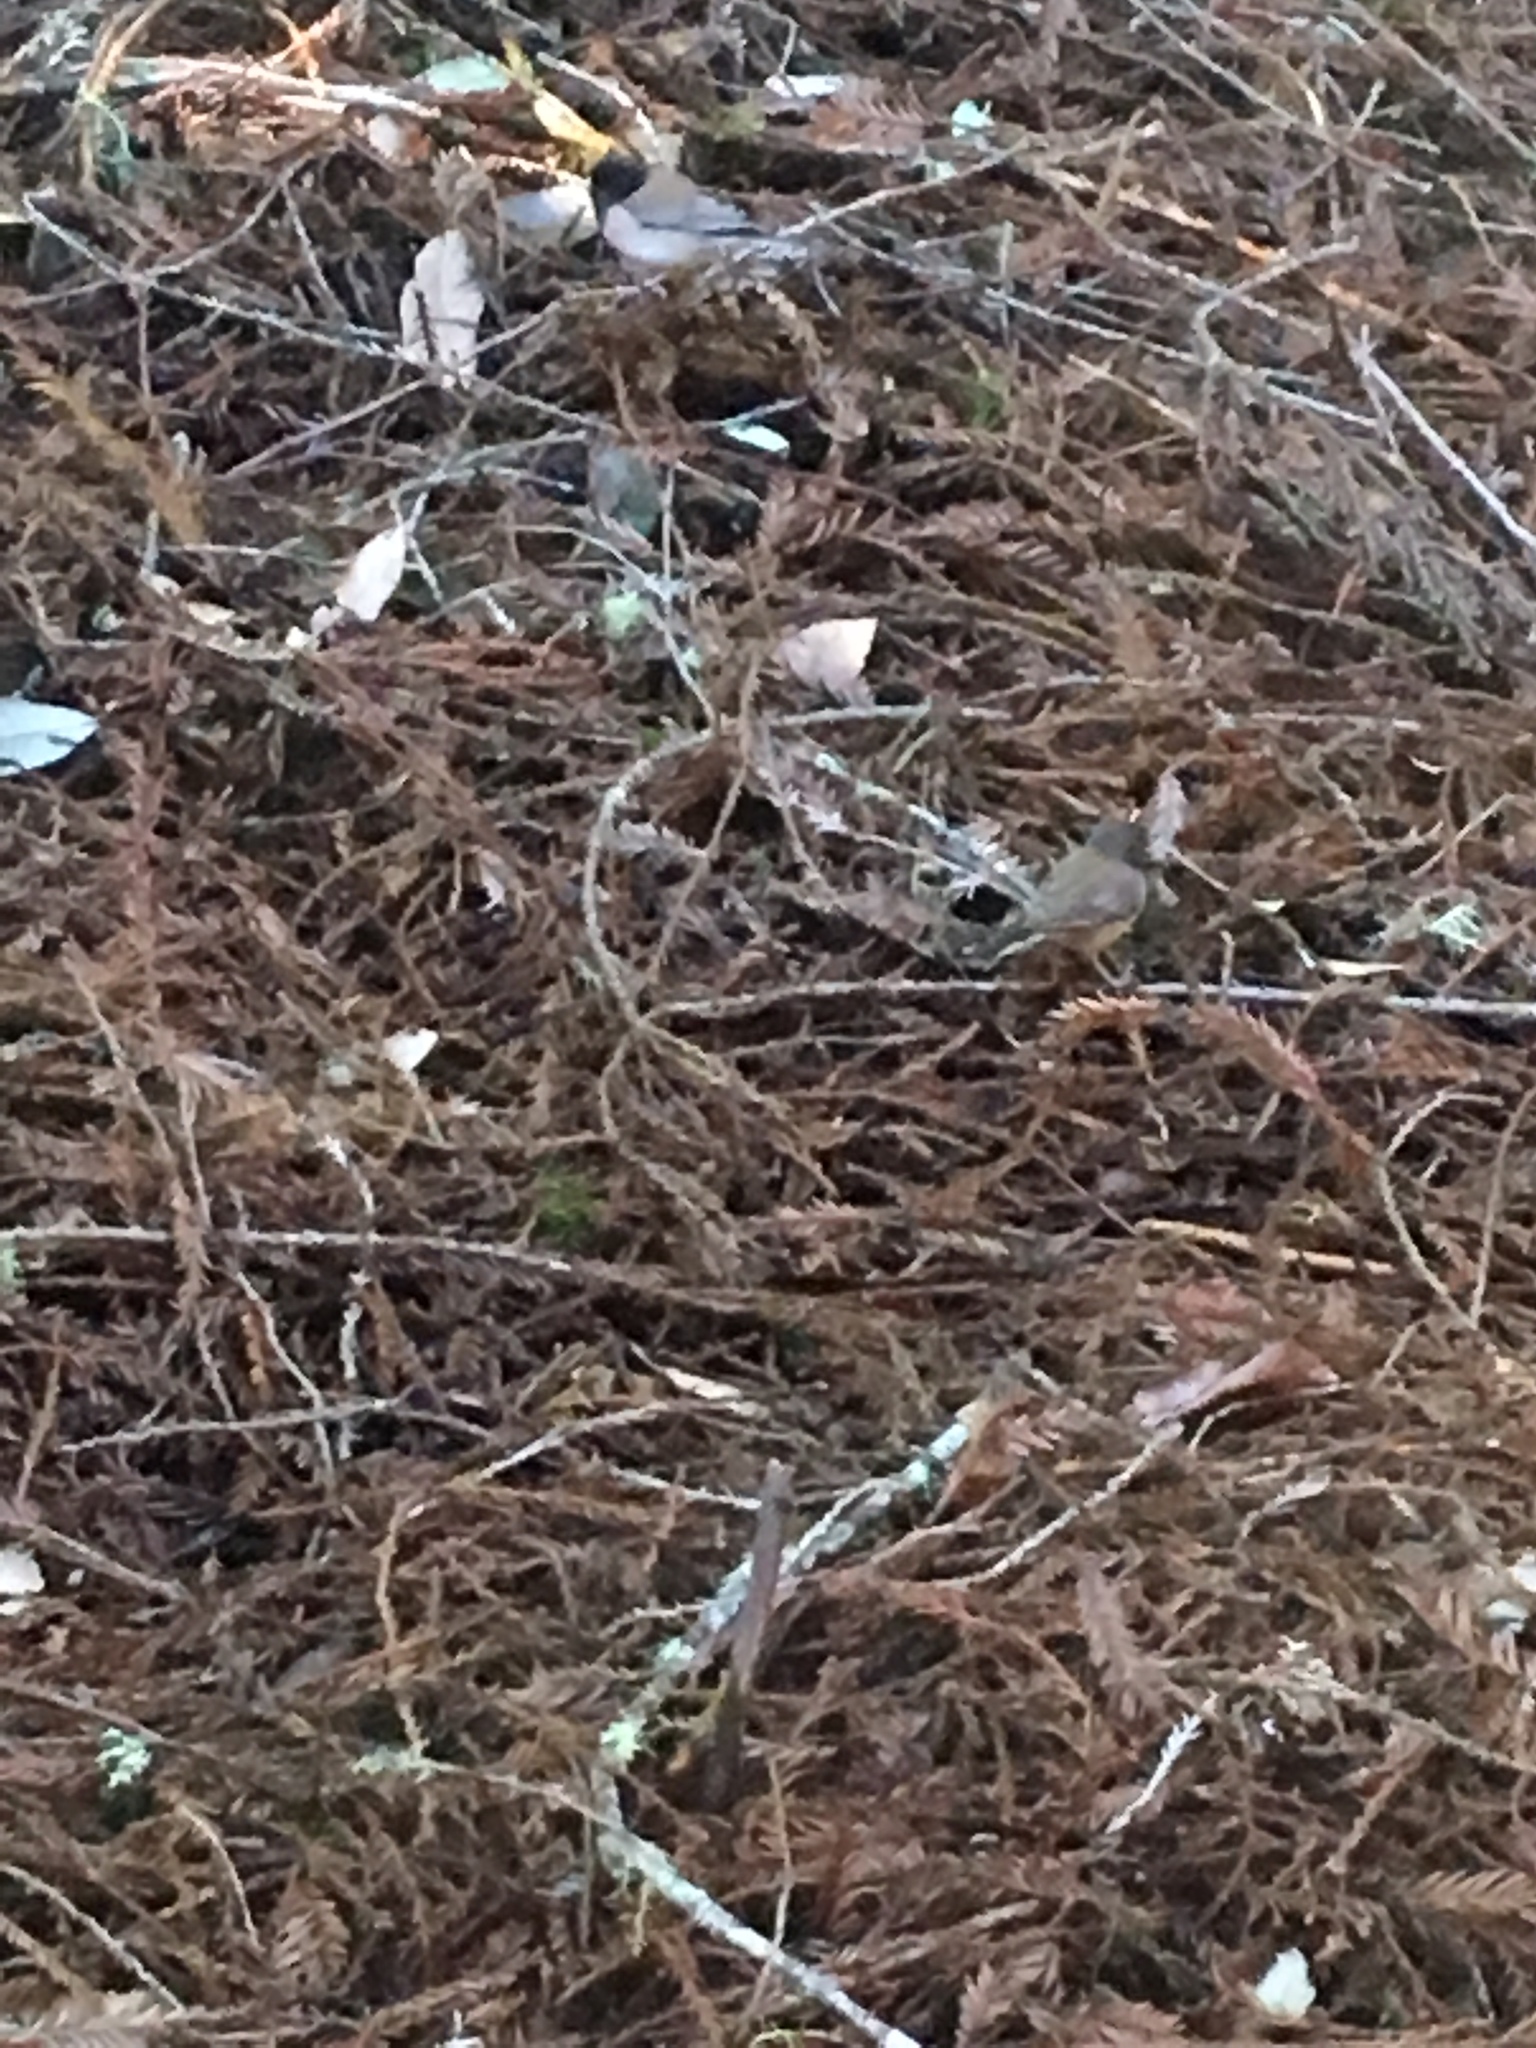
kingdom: Animalia
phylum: Chordata
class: Aves
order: Passeriformes
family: Passerellidae
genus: Junco
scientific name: Junco hyemalis
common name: Dark-eyed junco
